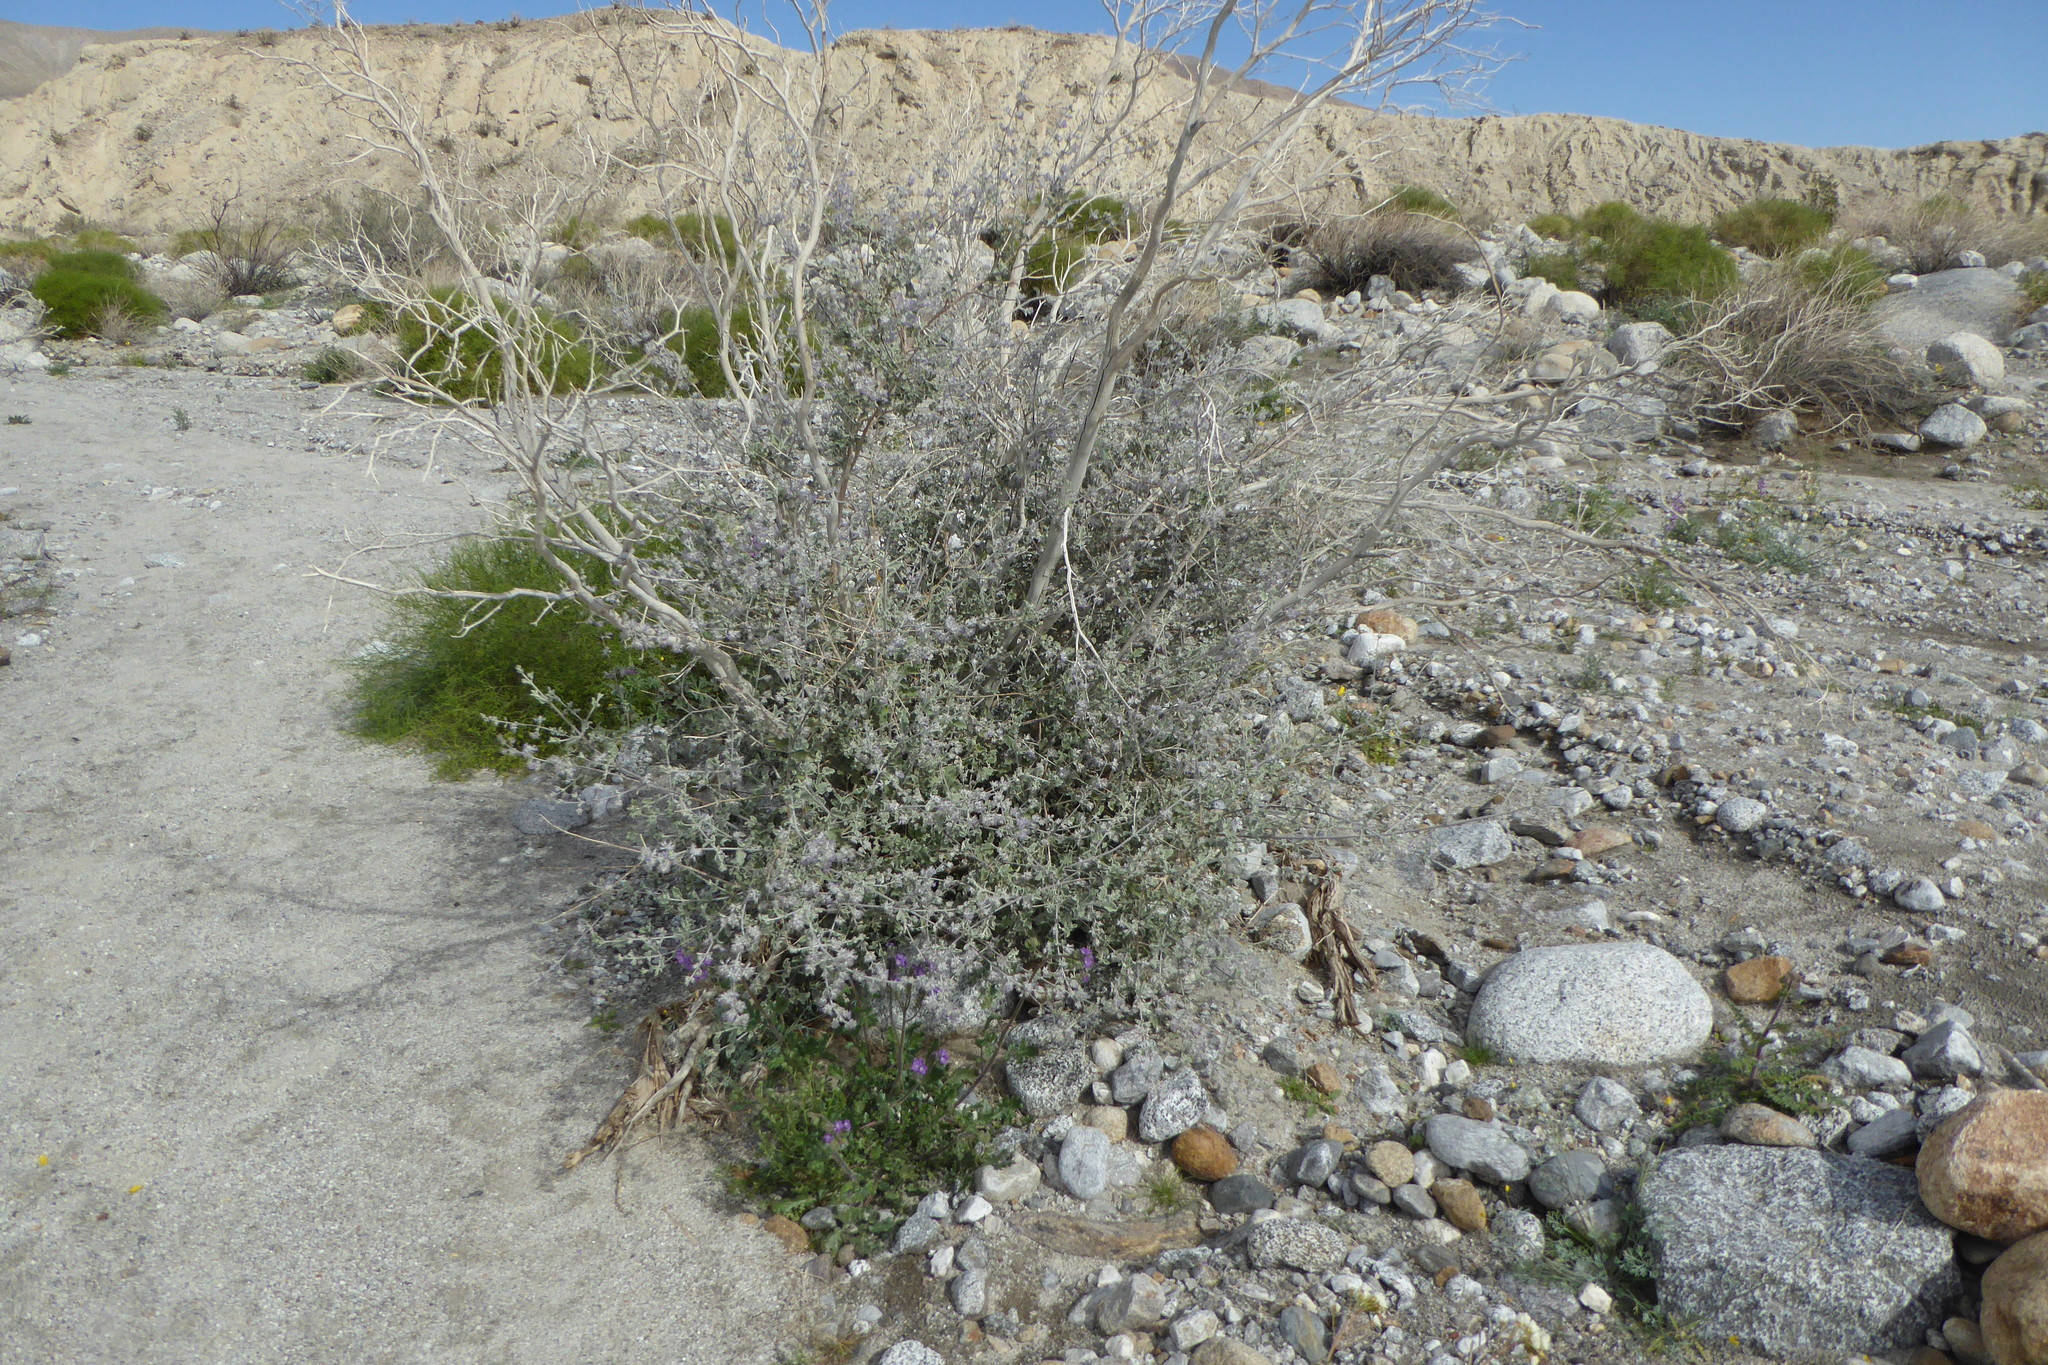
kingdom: Plantae
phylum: Tracheophyta
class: Magnoliopsida
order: Lamiales
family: Lamiaceae
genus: Condea
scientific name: Condea emoryi
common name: Chia
